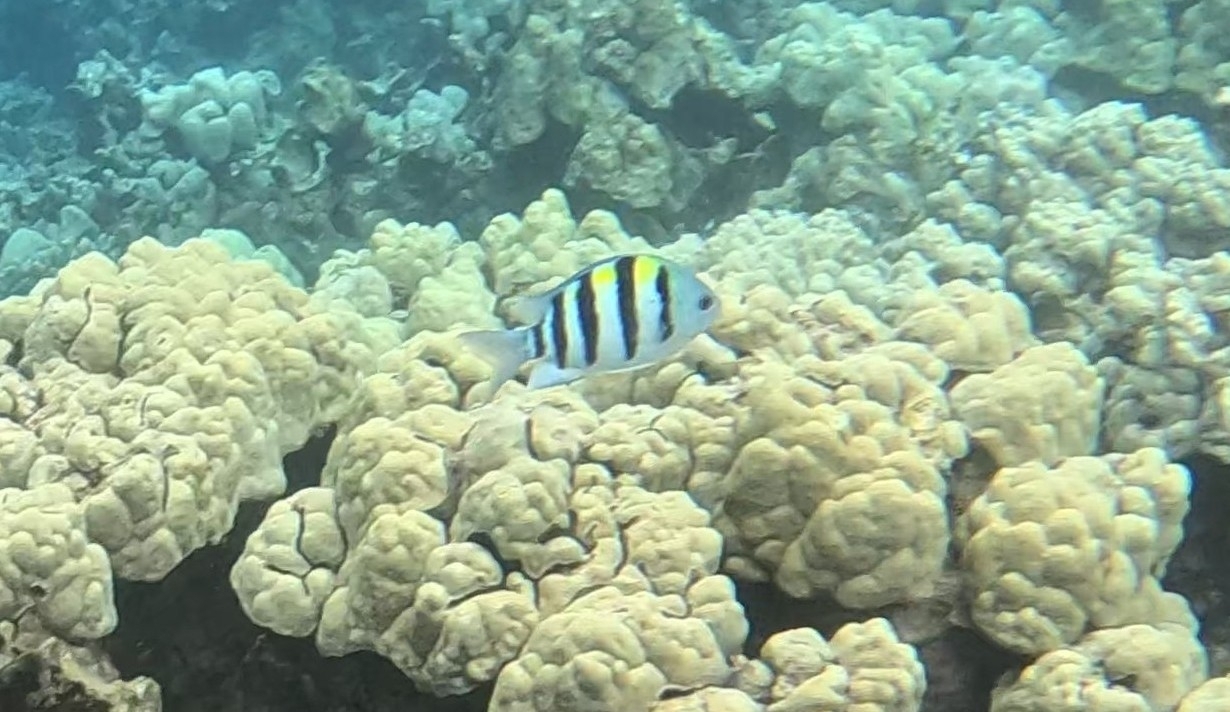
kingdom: Animalia
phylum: Chordata
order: Perciformes
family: Pomacentridae
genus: Abudefduf
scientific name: Abudefduf vaigiensis
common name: Indo-pacific sergeant
